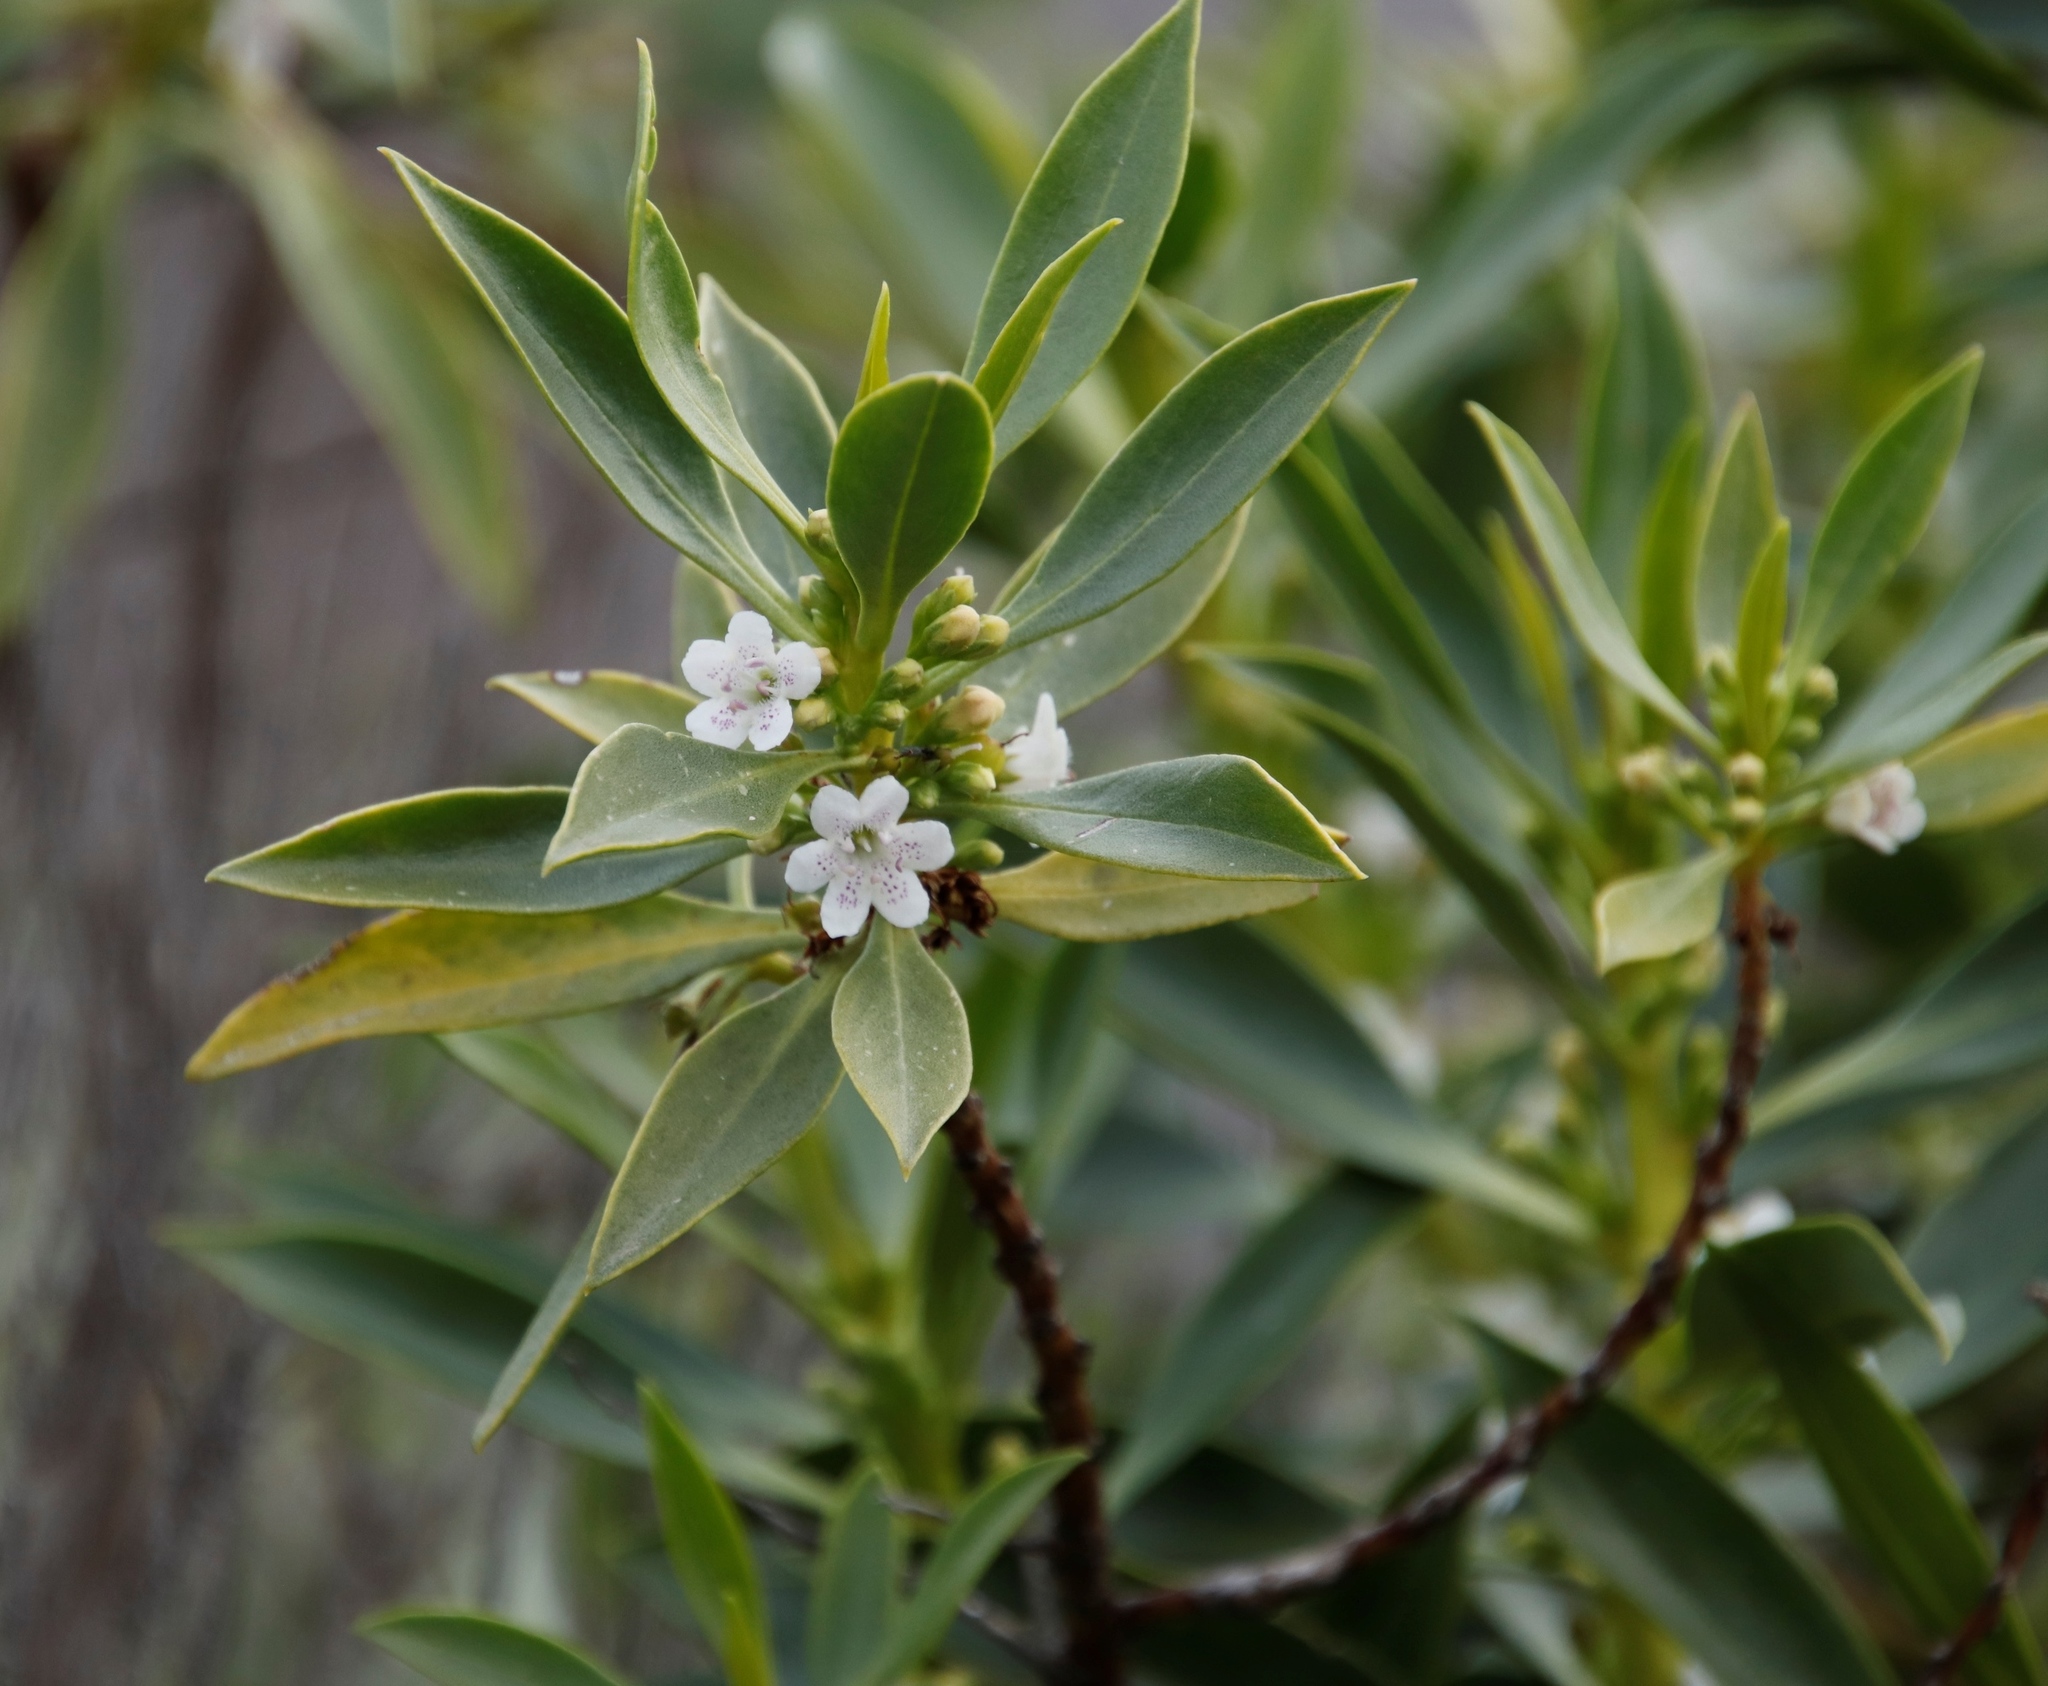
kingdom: Plantae
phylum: Tracheophyta
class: Magnoliopsida
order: Lamiales
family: Scrophulariaceae
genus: Myoporum
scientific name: Myoporum montanum
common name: Waterbush
